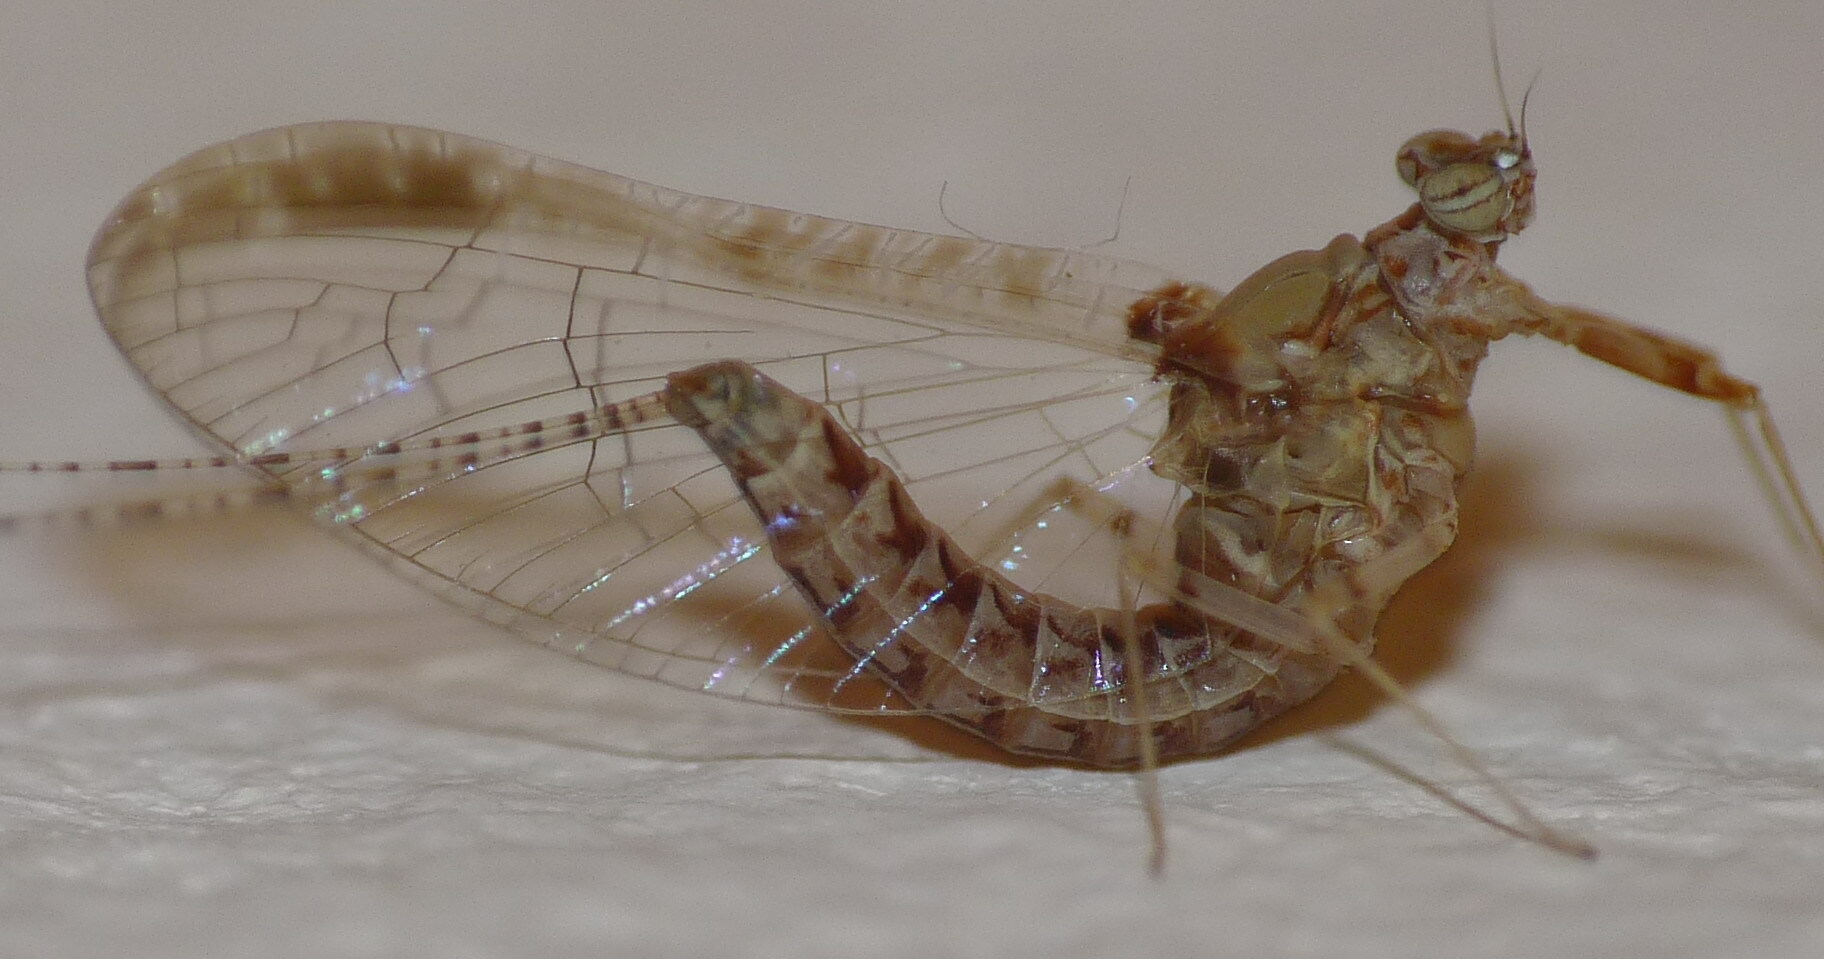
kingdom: Animalia
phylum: Arthropoda
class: Insecta
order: Ephemeroptera
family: Baetidae
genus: Cloeon
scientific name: Cloeon dipterum
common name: Pond olive
